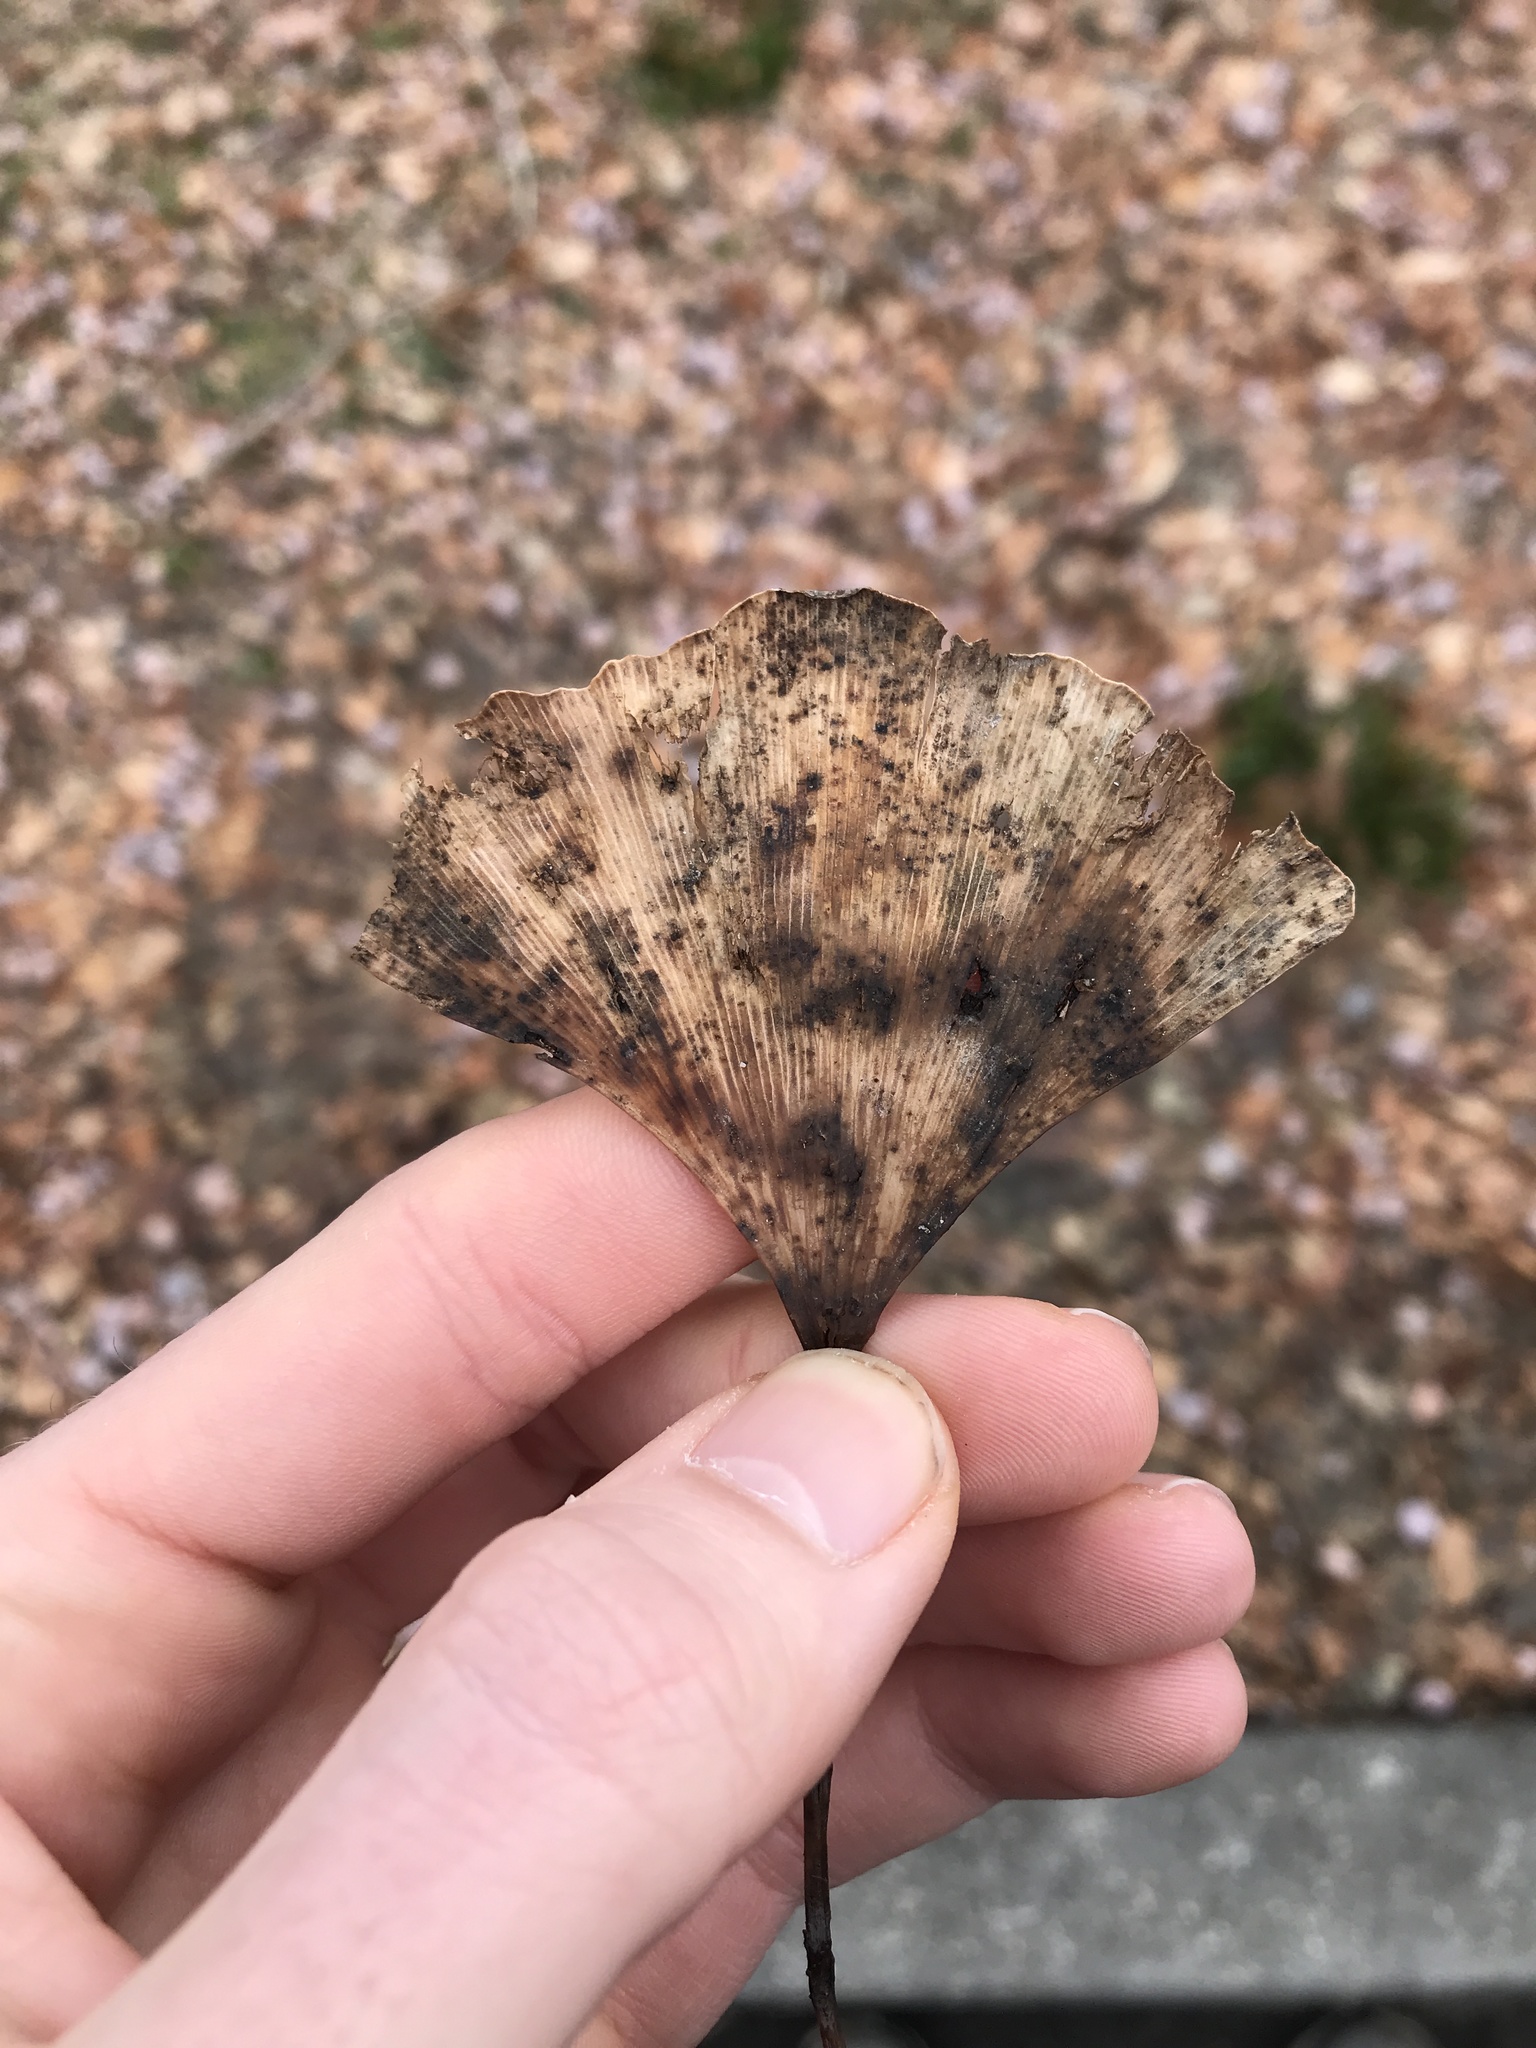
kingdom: Fungi
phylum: Basidiomycota
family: Bartheletiaceae
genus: Bartheletia
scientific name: Bartheletia paradoxa
